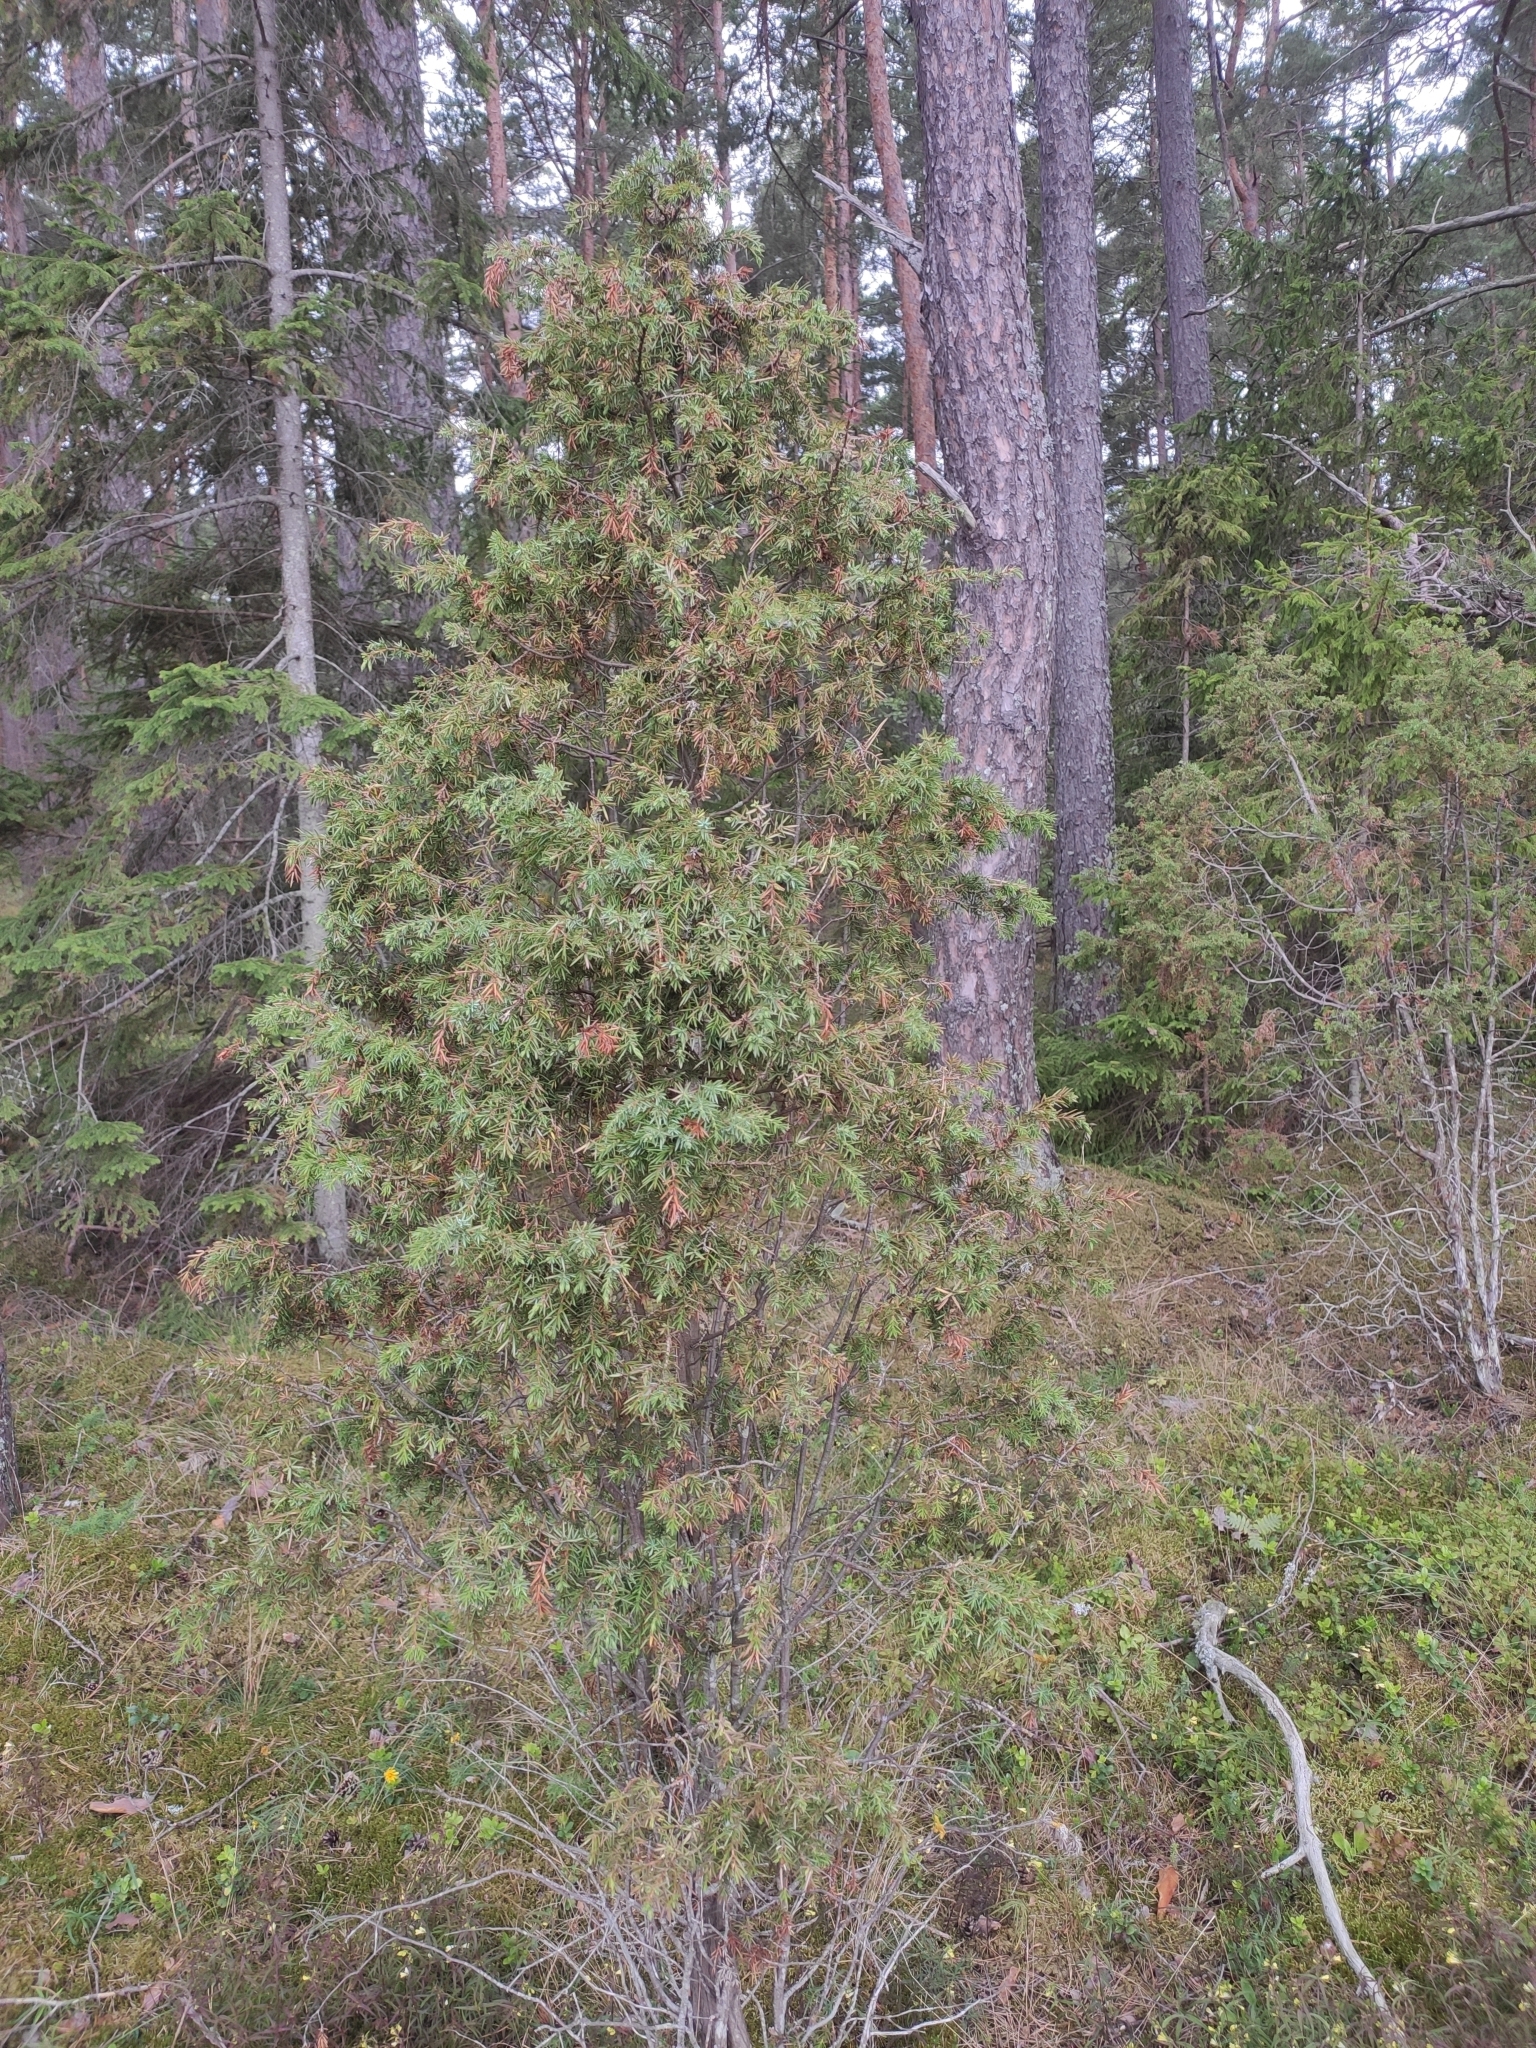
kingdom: Plantae
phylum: Tracheophyta
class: Pinopsida
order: Pinales
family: Cupressaceae
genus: Juniperus
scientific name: Juniperus communis
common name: Common juniper
